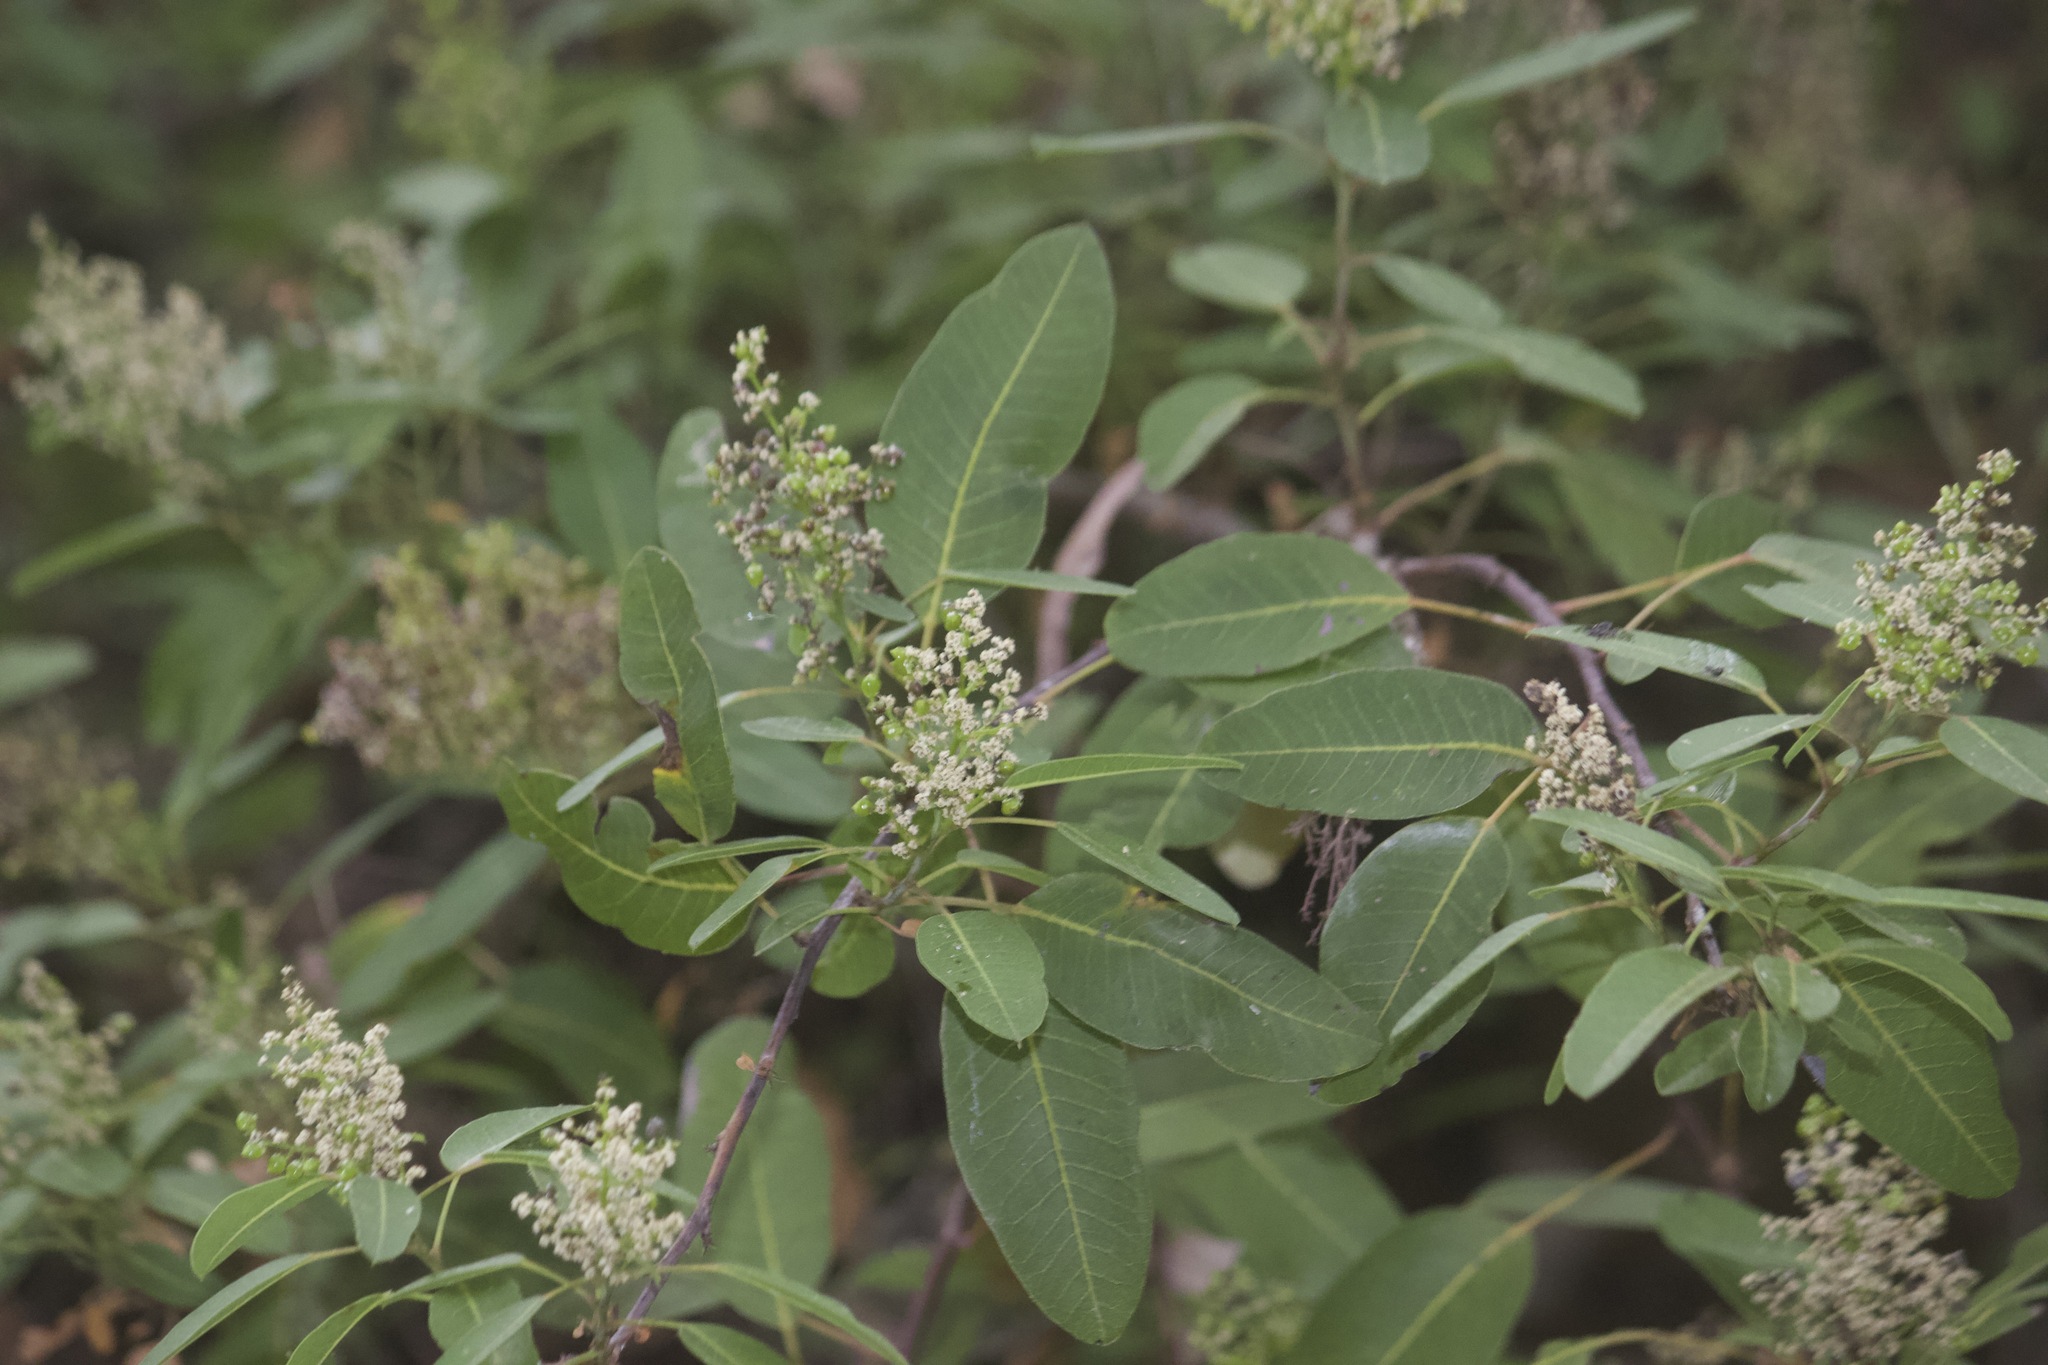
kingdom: Plantae
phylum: Tracheophyta
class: Magnoliopsida
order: Sapindales
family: Anacardiaceae
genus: Malosma
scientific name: Malosma laurina
